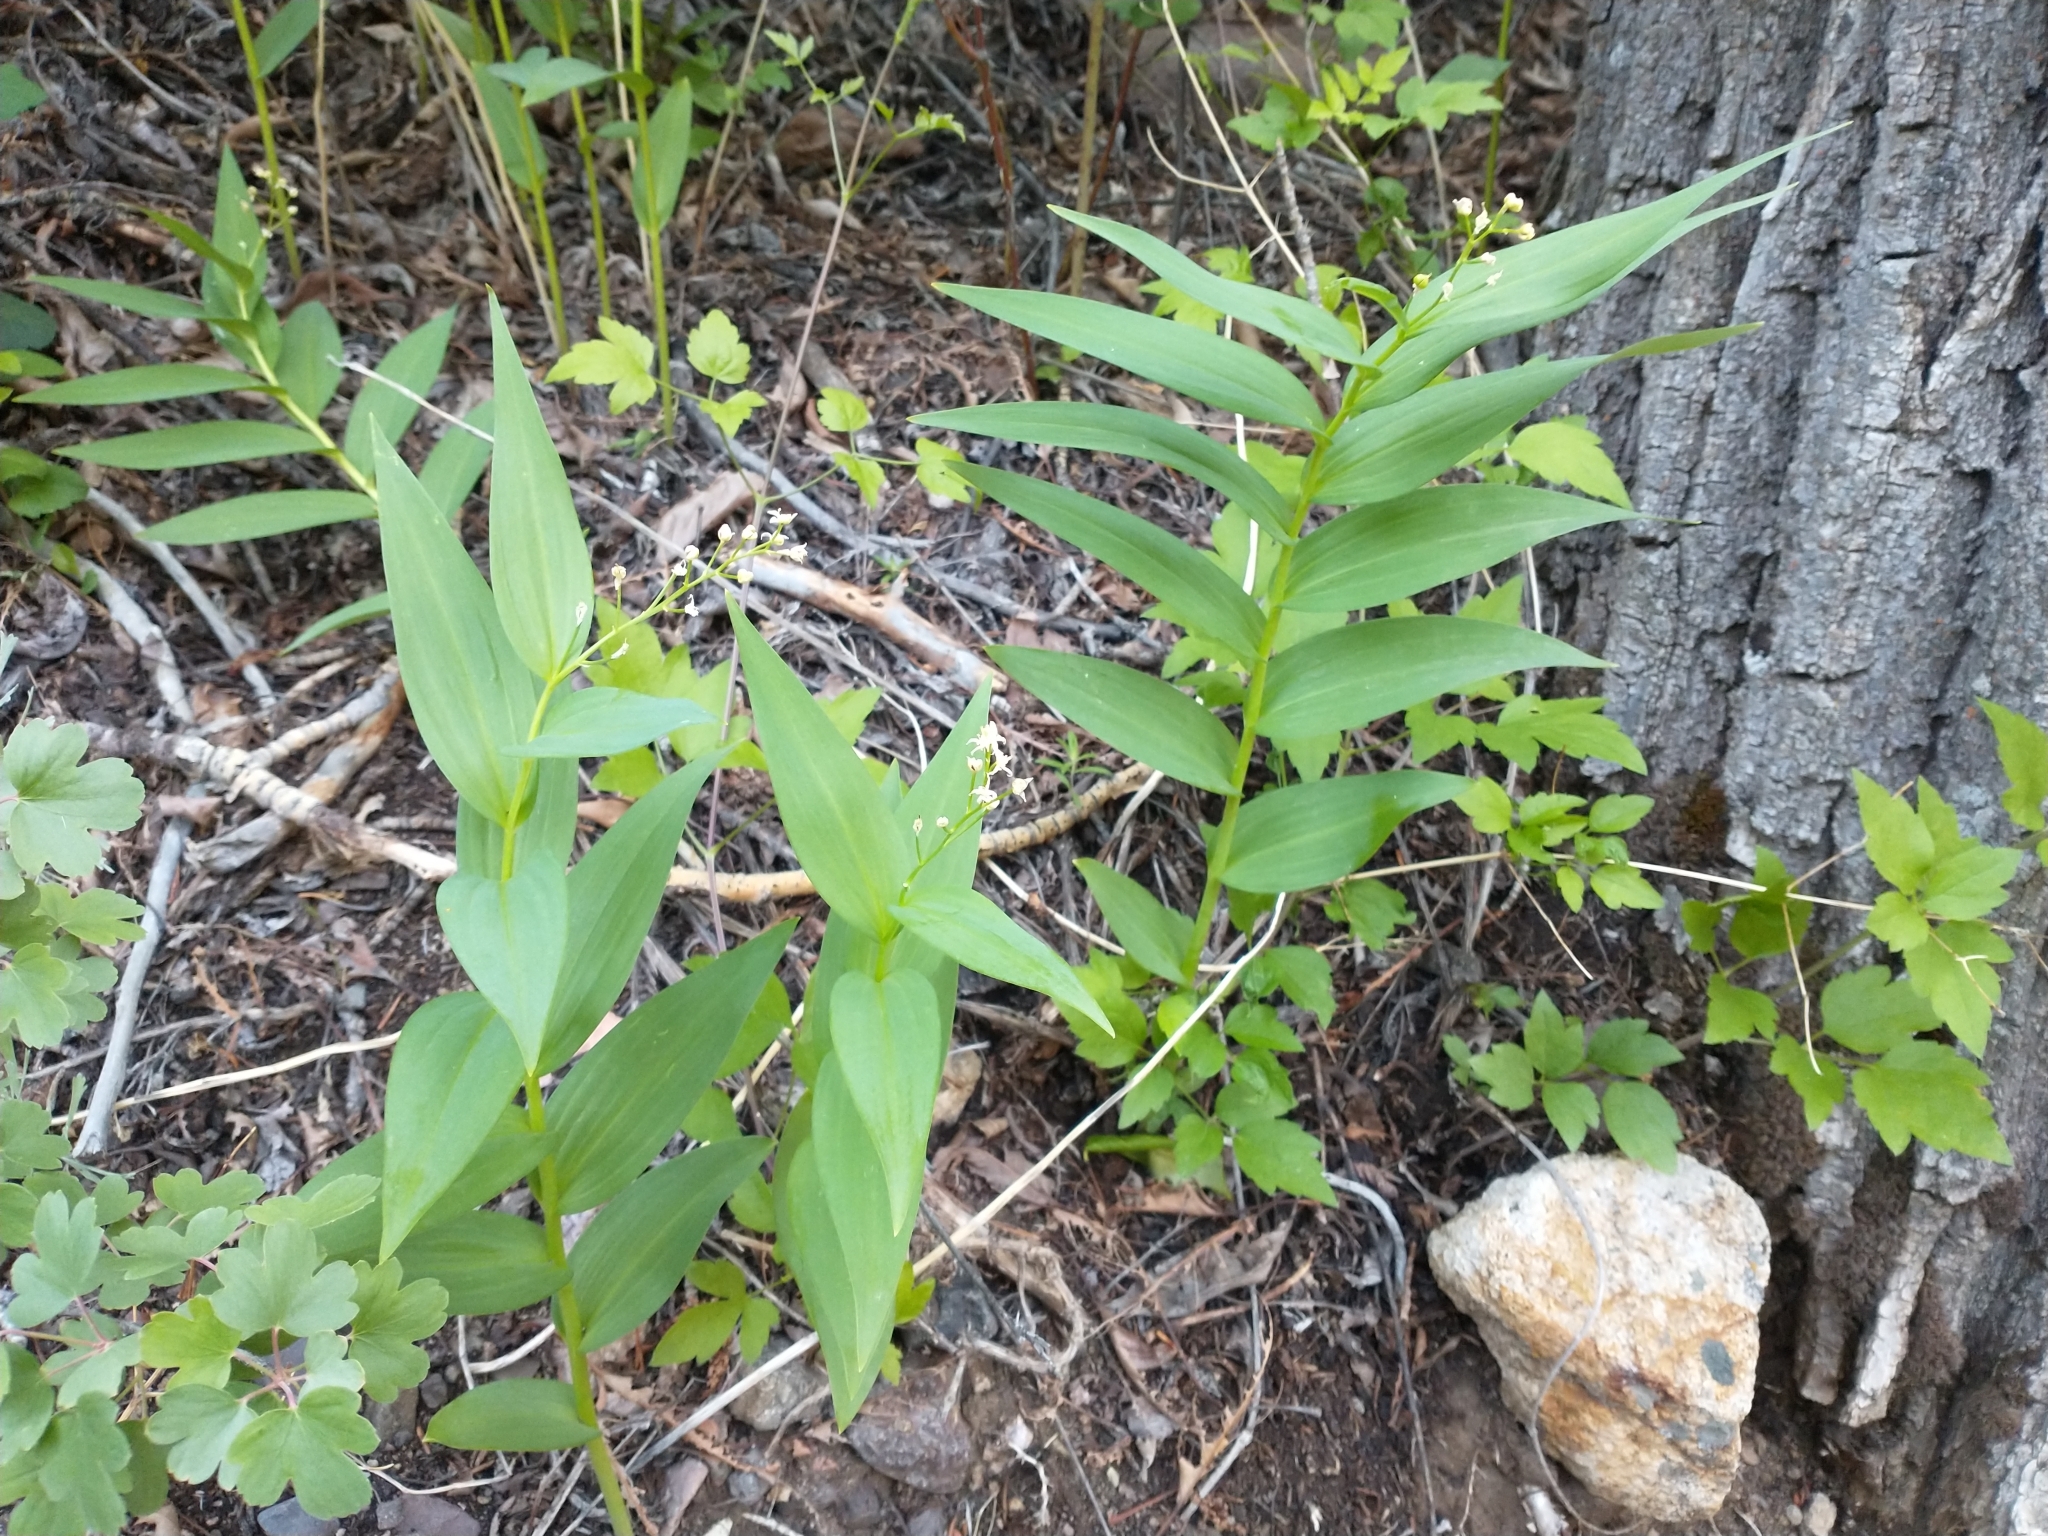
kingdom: Plantae
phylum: Tracheophyta
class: Liliopsida
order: Asparagales
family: Asparagaceae
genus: Maianthemum
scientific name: Maianthemum stellatum
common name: Little false solomon's seal
